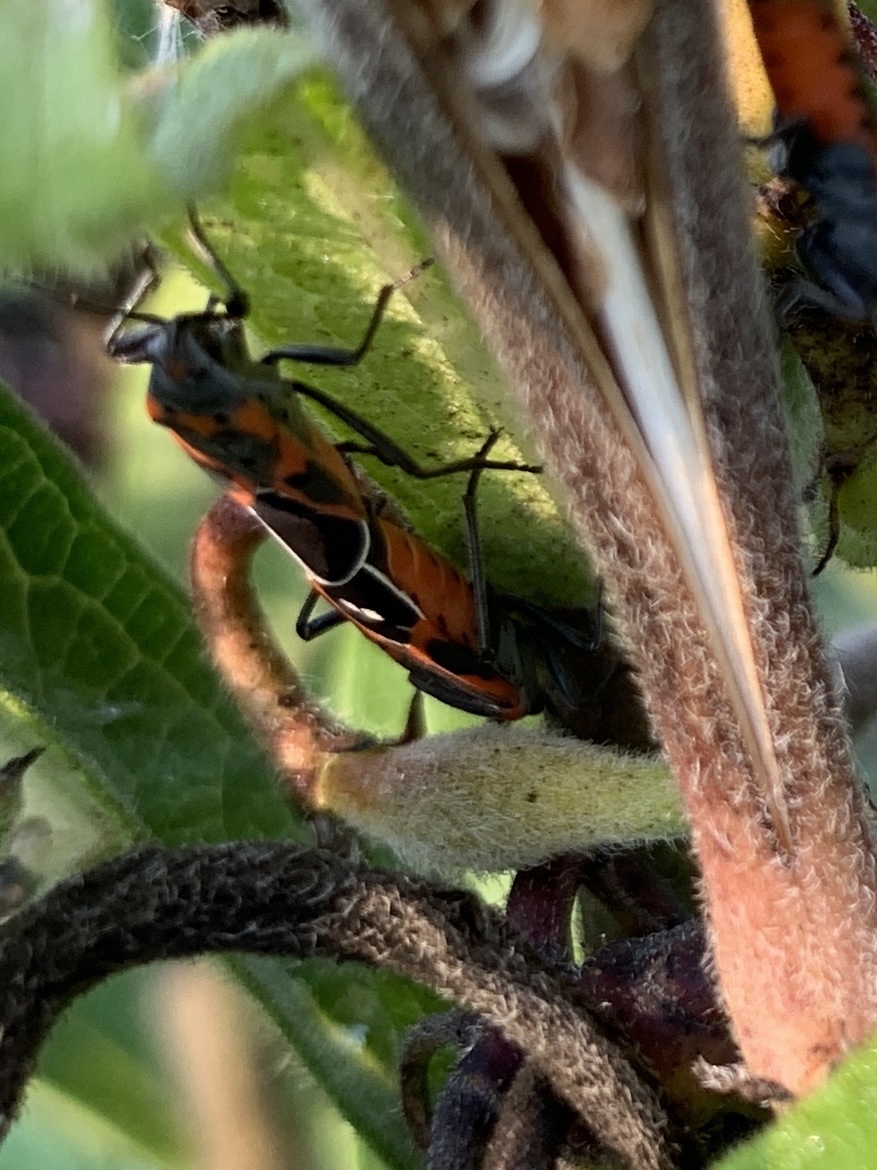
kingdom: Animalia
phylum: Arthropoda
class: Insecta
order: Hemiptera
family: Lygaeidae
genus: Lygaeus
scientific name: Lygaeus kalmii
